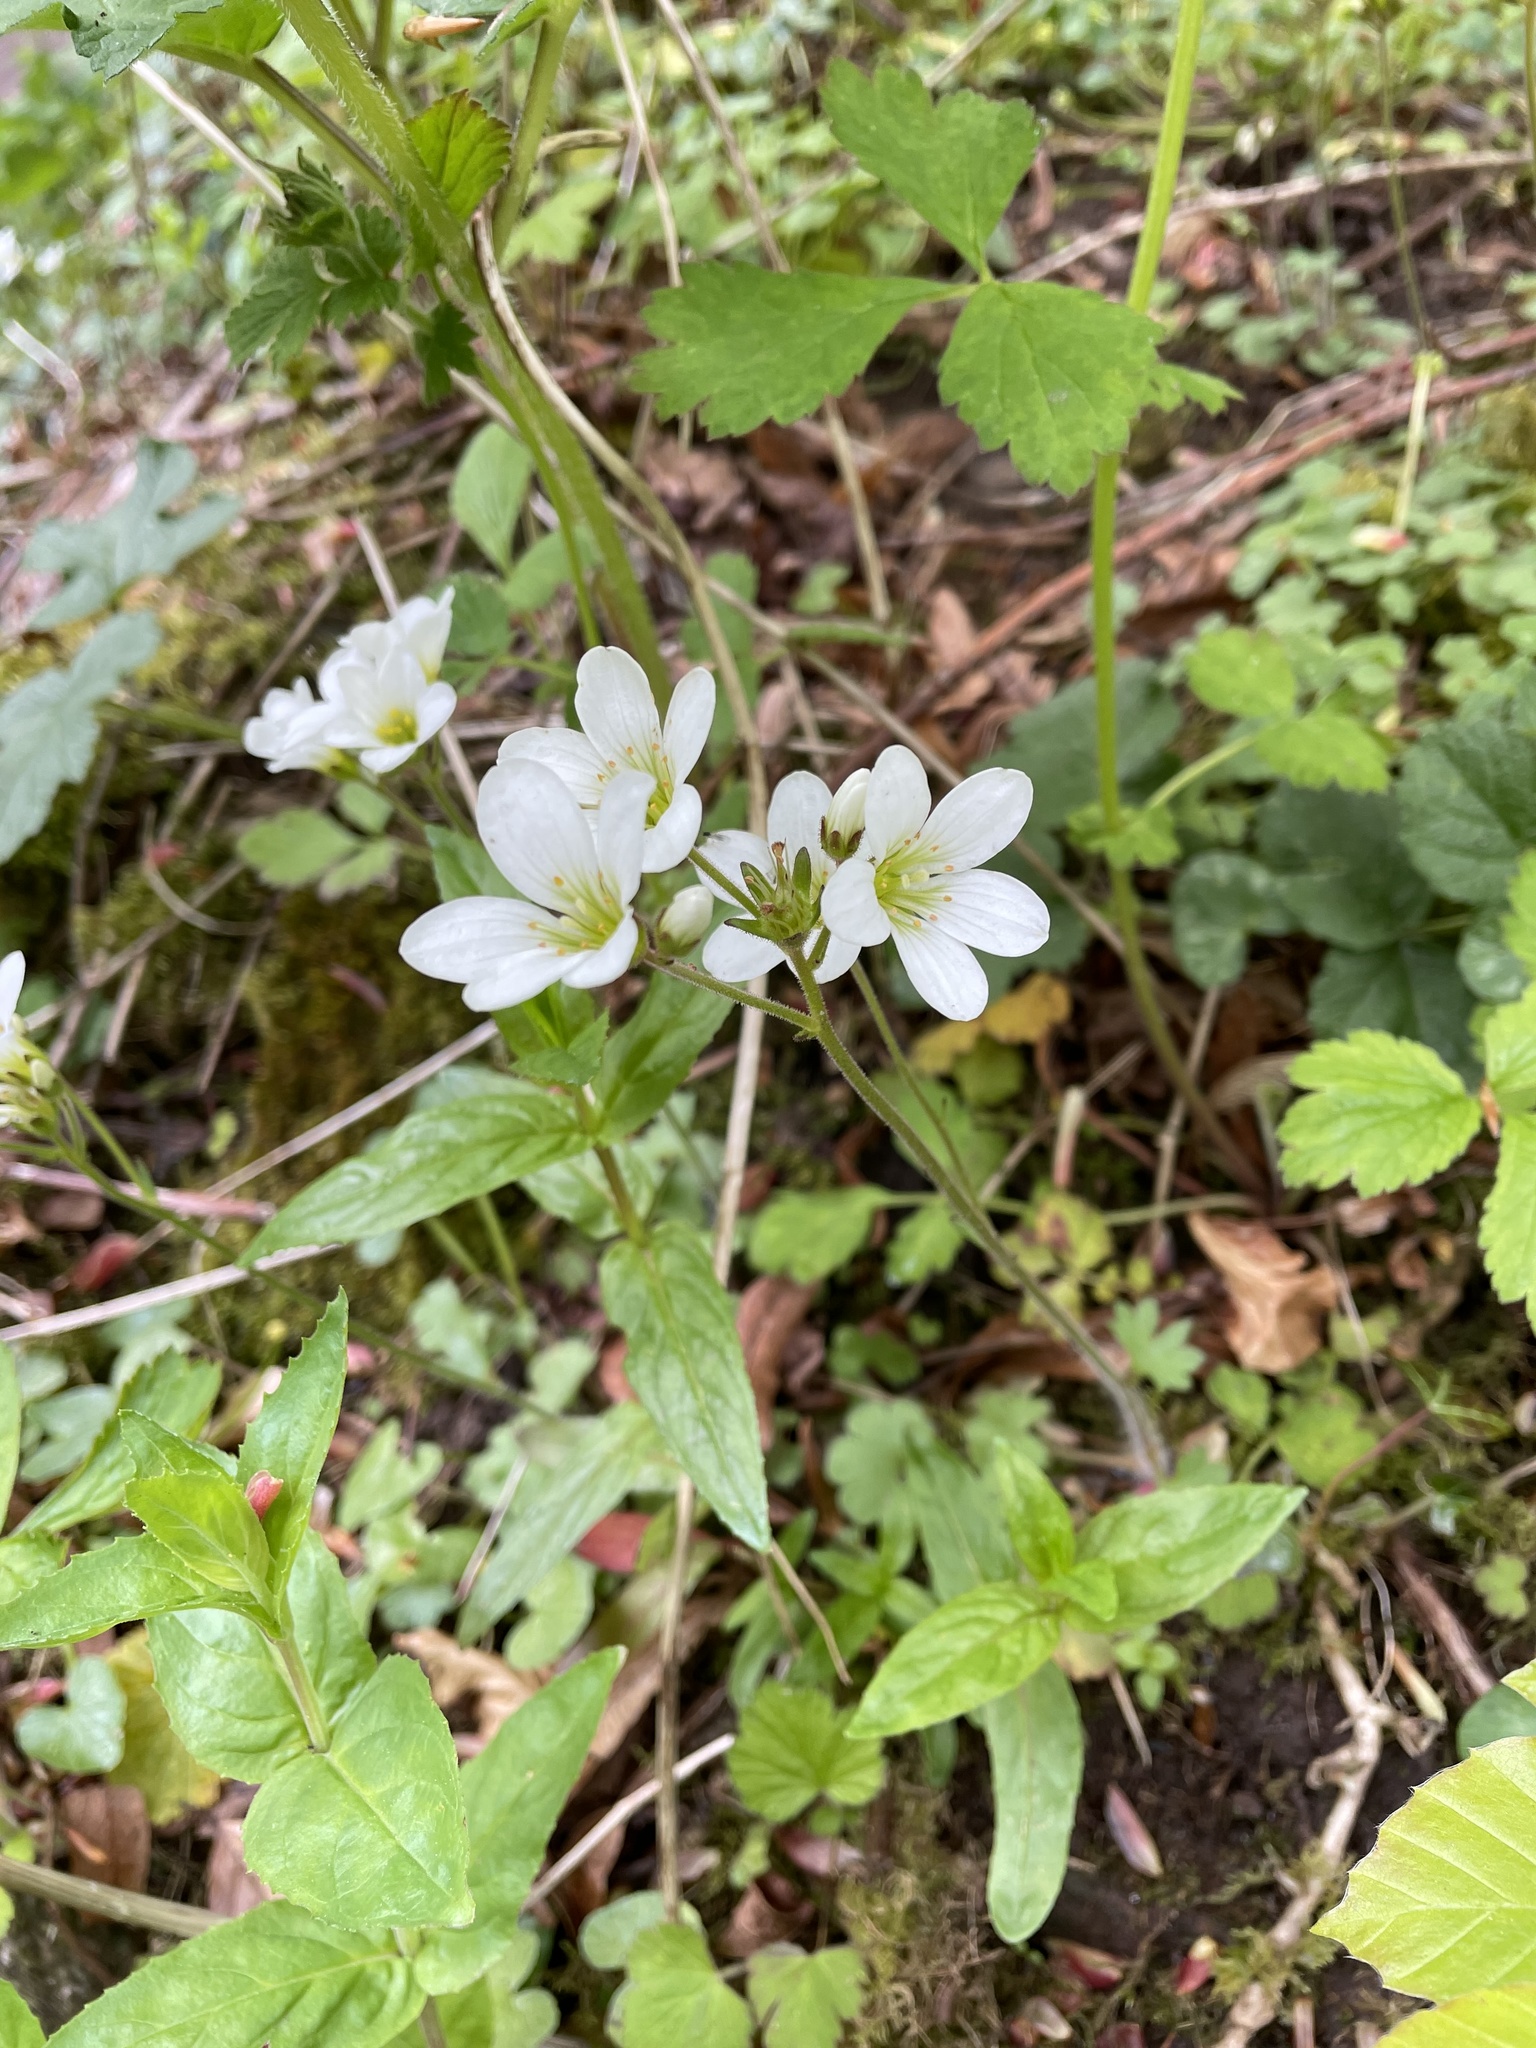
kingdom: Plantae
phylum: Tracheophyta
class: Magnoliopsida
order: Saxifragales
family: Saxifragaceae
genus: Saxifraga
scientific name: Saxifraga granulata
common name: Meadow saxifrage
